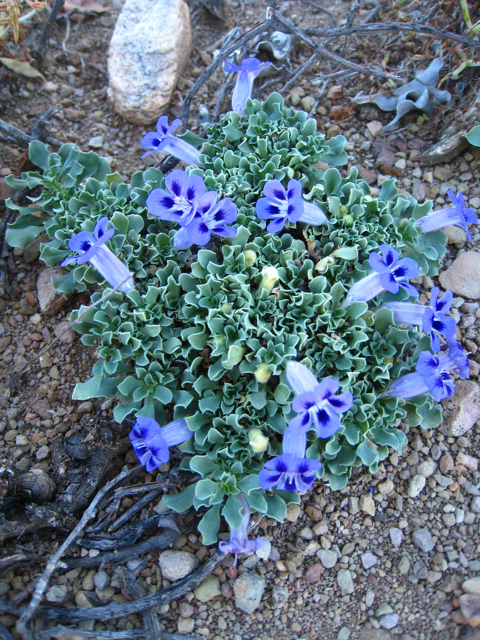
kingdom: Plantae
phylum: Tracheophyta
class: Magnoliopsida
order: Lamiales
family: Scrophulariaceae
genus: Aptosimum
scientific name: Aptosimum indivisum
